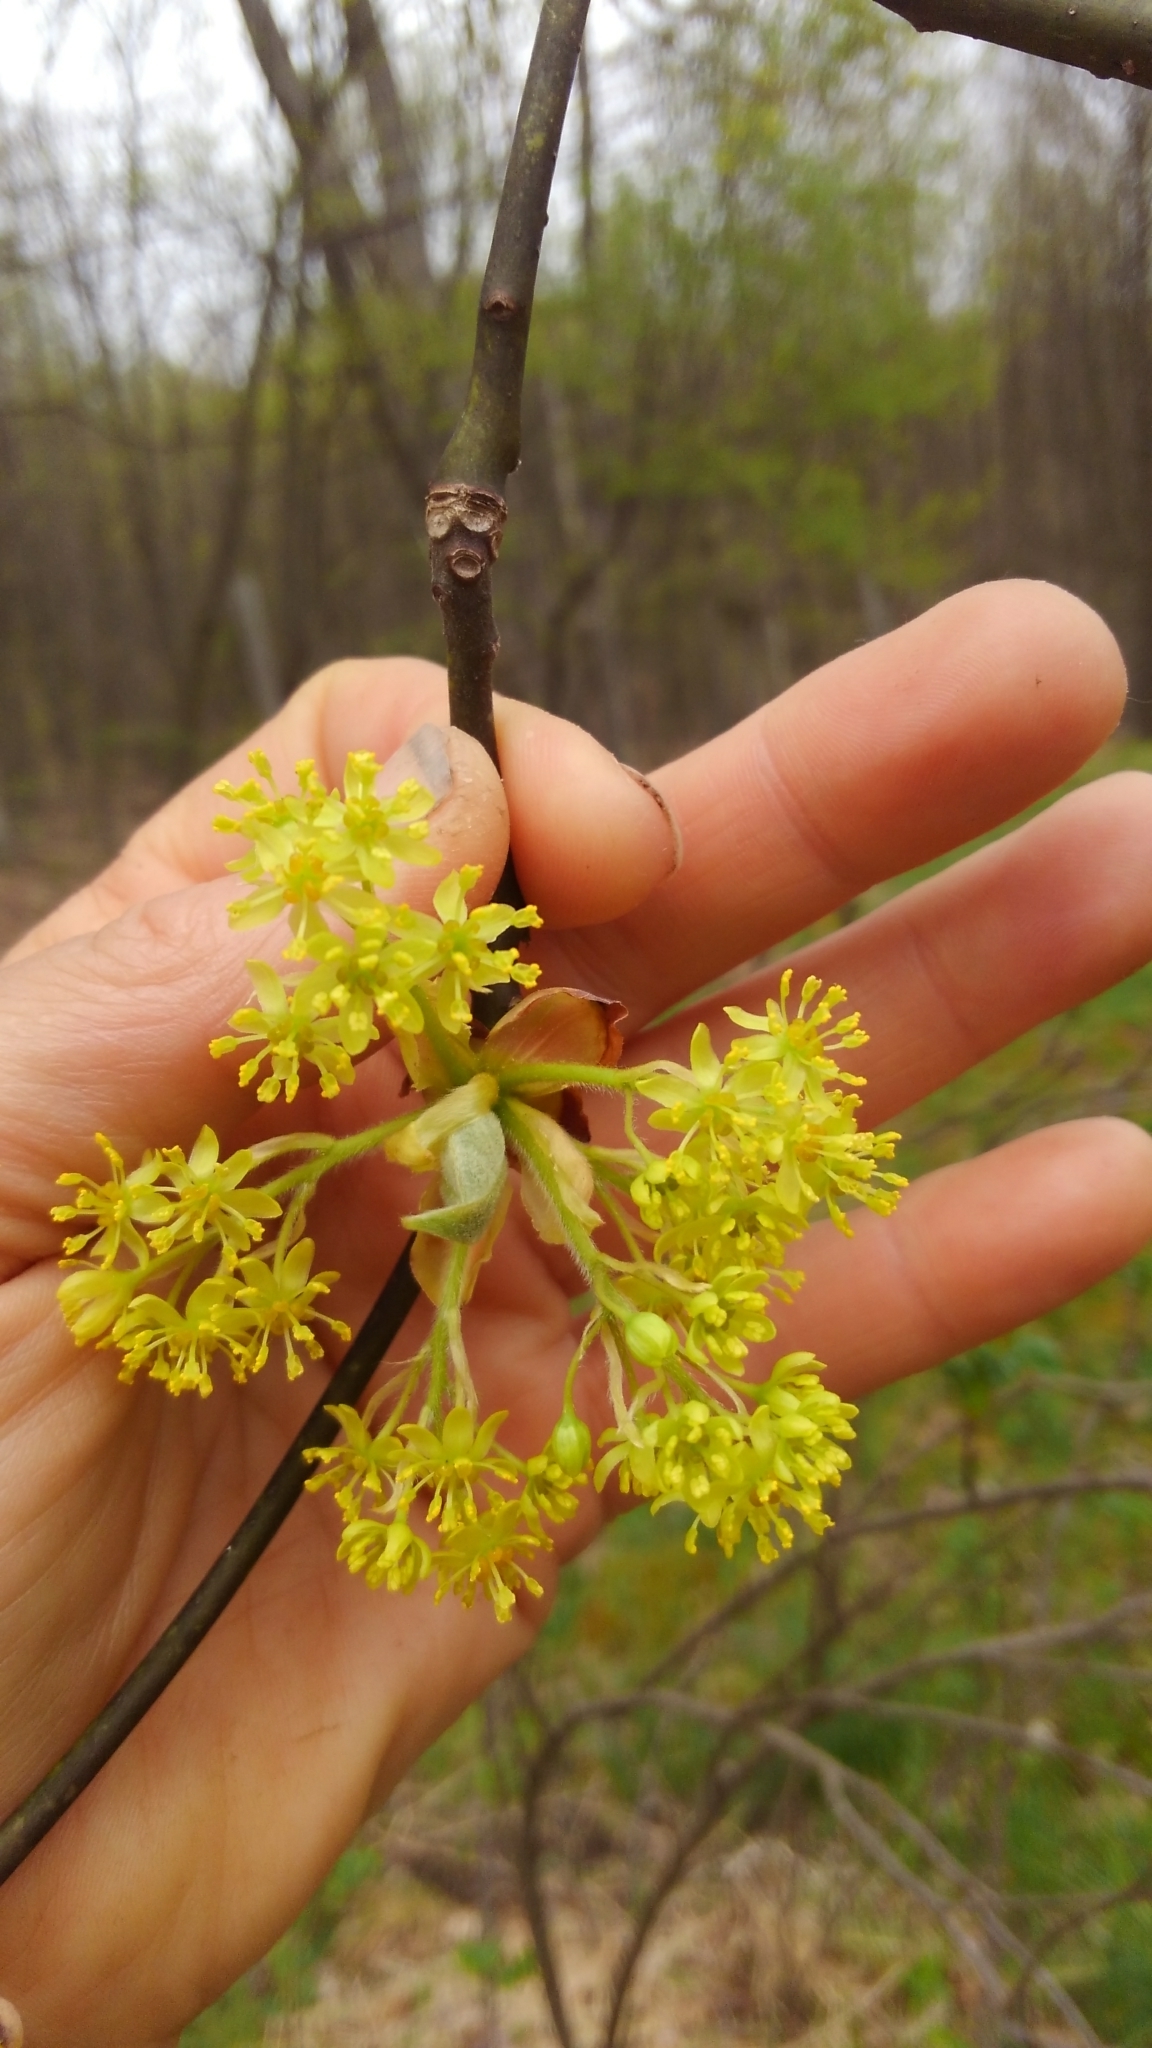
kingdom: Plantae
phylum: Tracheophyta
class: Magnoliopsida
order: Laurales
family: Lauraceae
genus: Sassafras
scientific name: Sassafras albidum
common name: Sassafras
